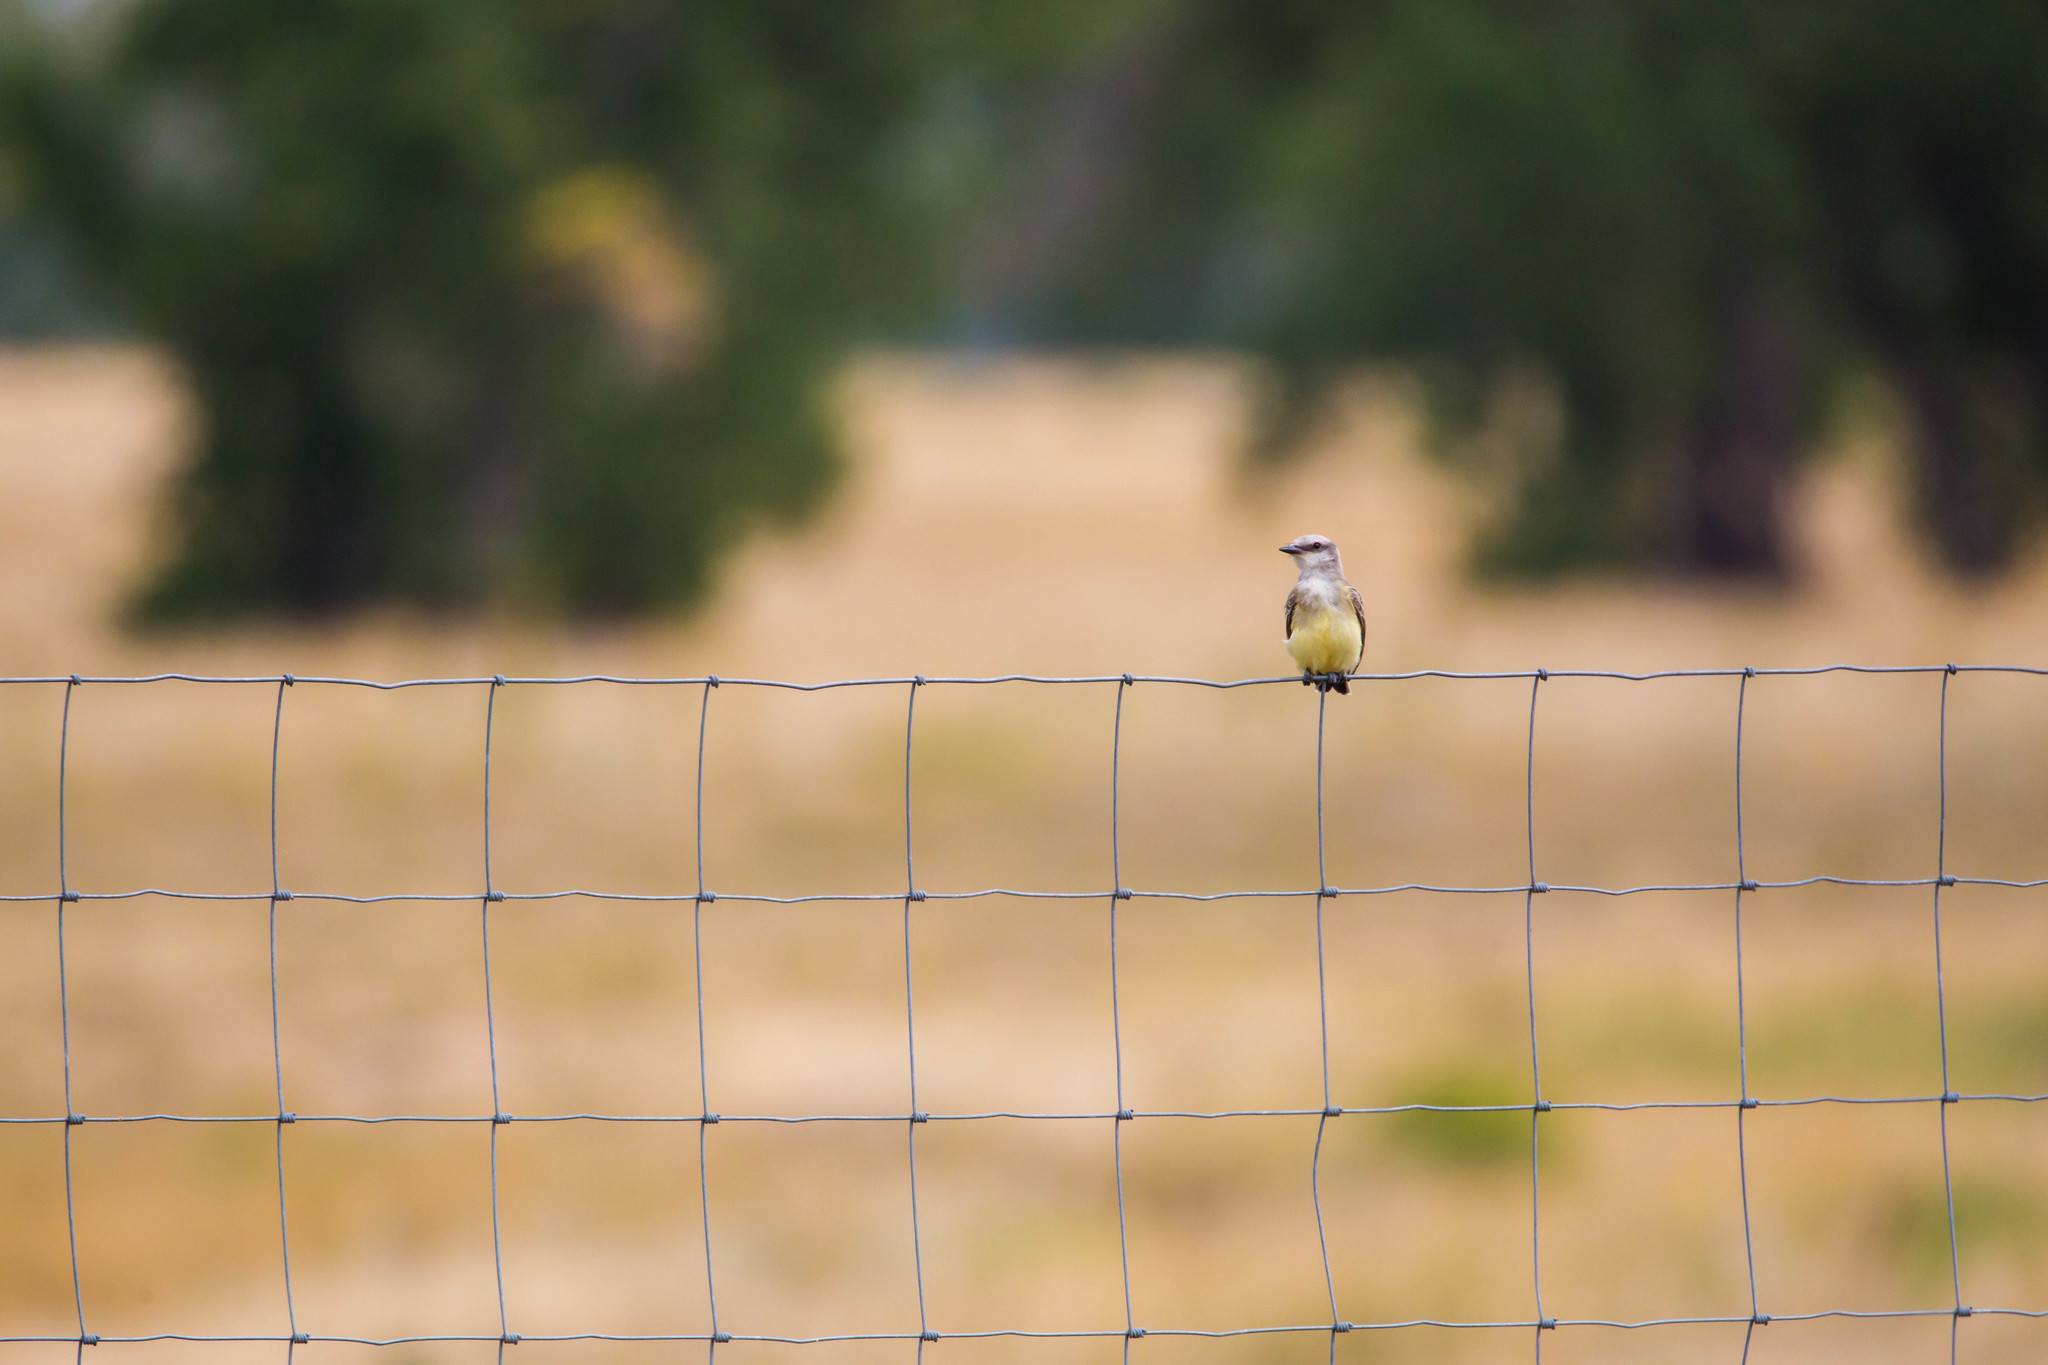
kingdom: Animalia
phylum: Chordata
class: Aves
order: Passeriformes
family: Tyrannidae
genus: Tyrannus
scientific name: Tyrannus verticalis
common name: Western kingbird
